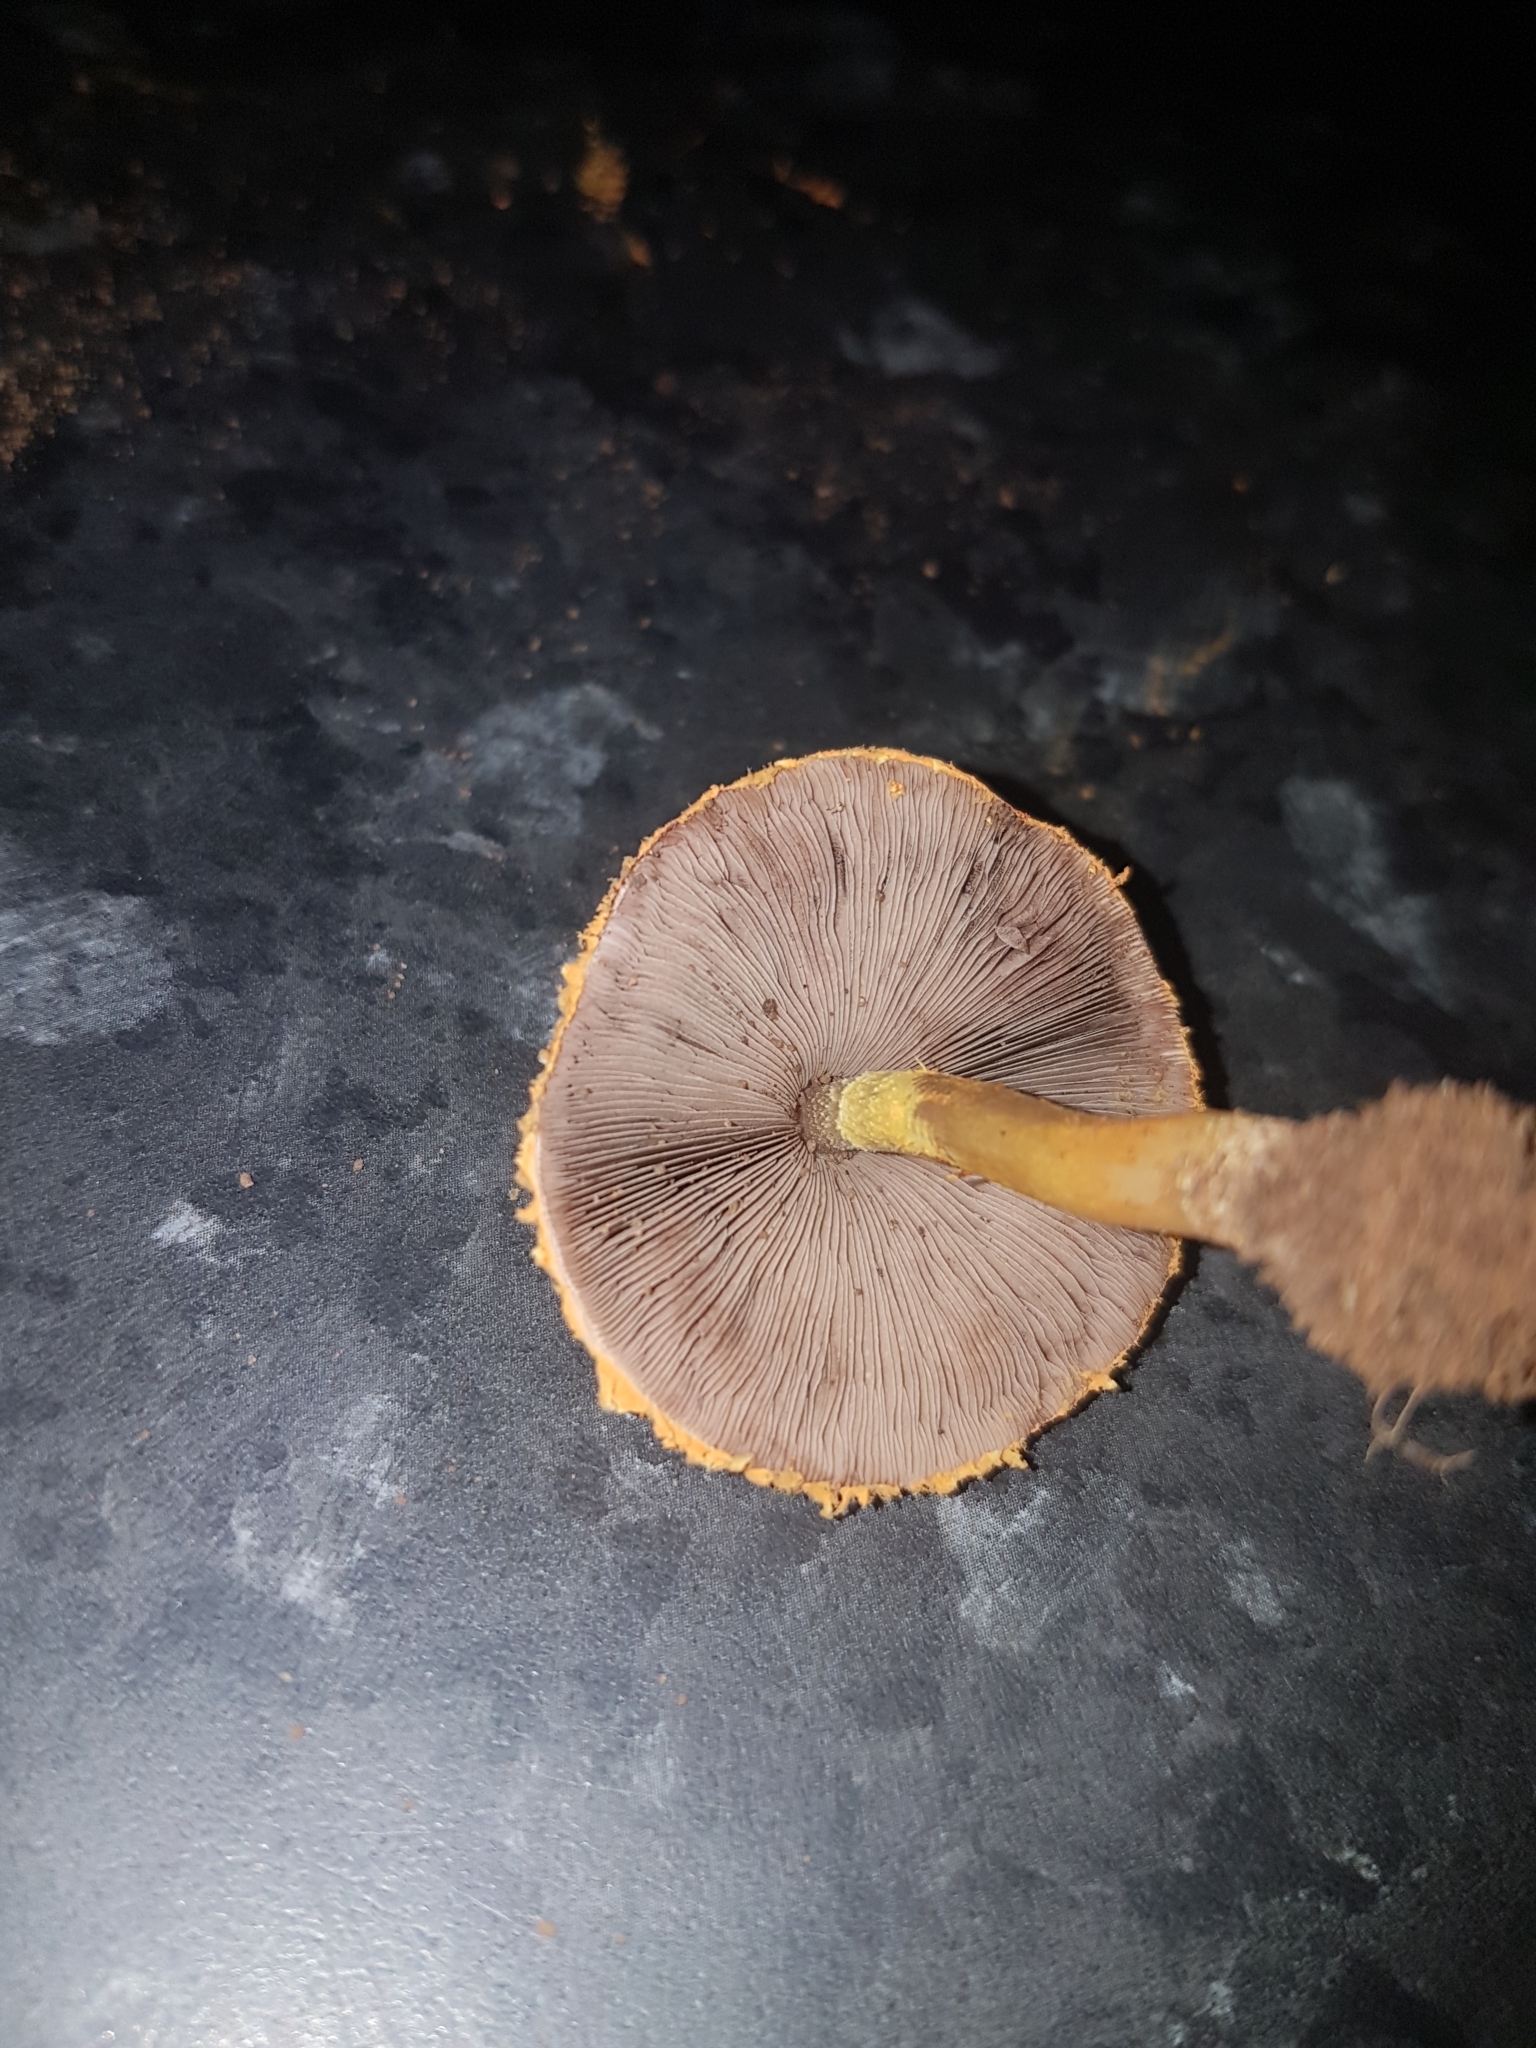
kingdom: Fungi
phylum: Basidiomycota
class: Agaricomycetes
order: Agaricales
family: Amanitaceae
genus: Aspidella
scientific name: Aspidella aureofloccosa
